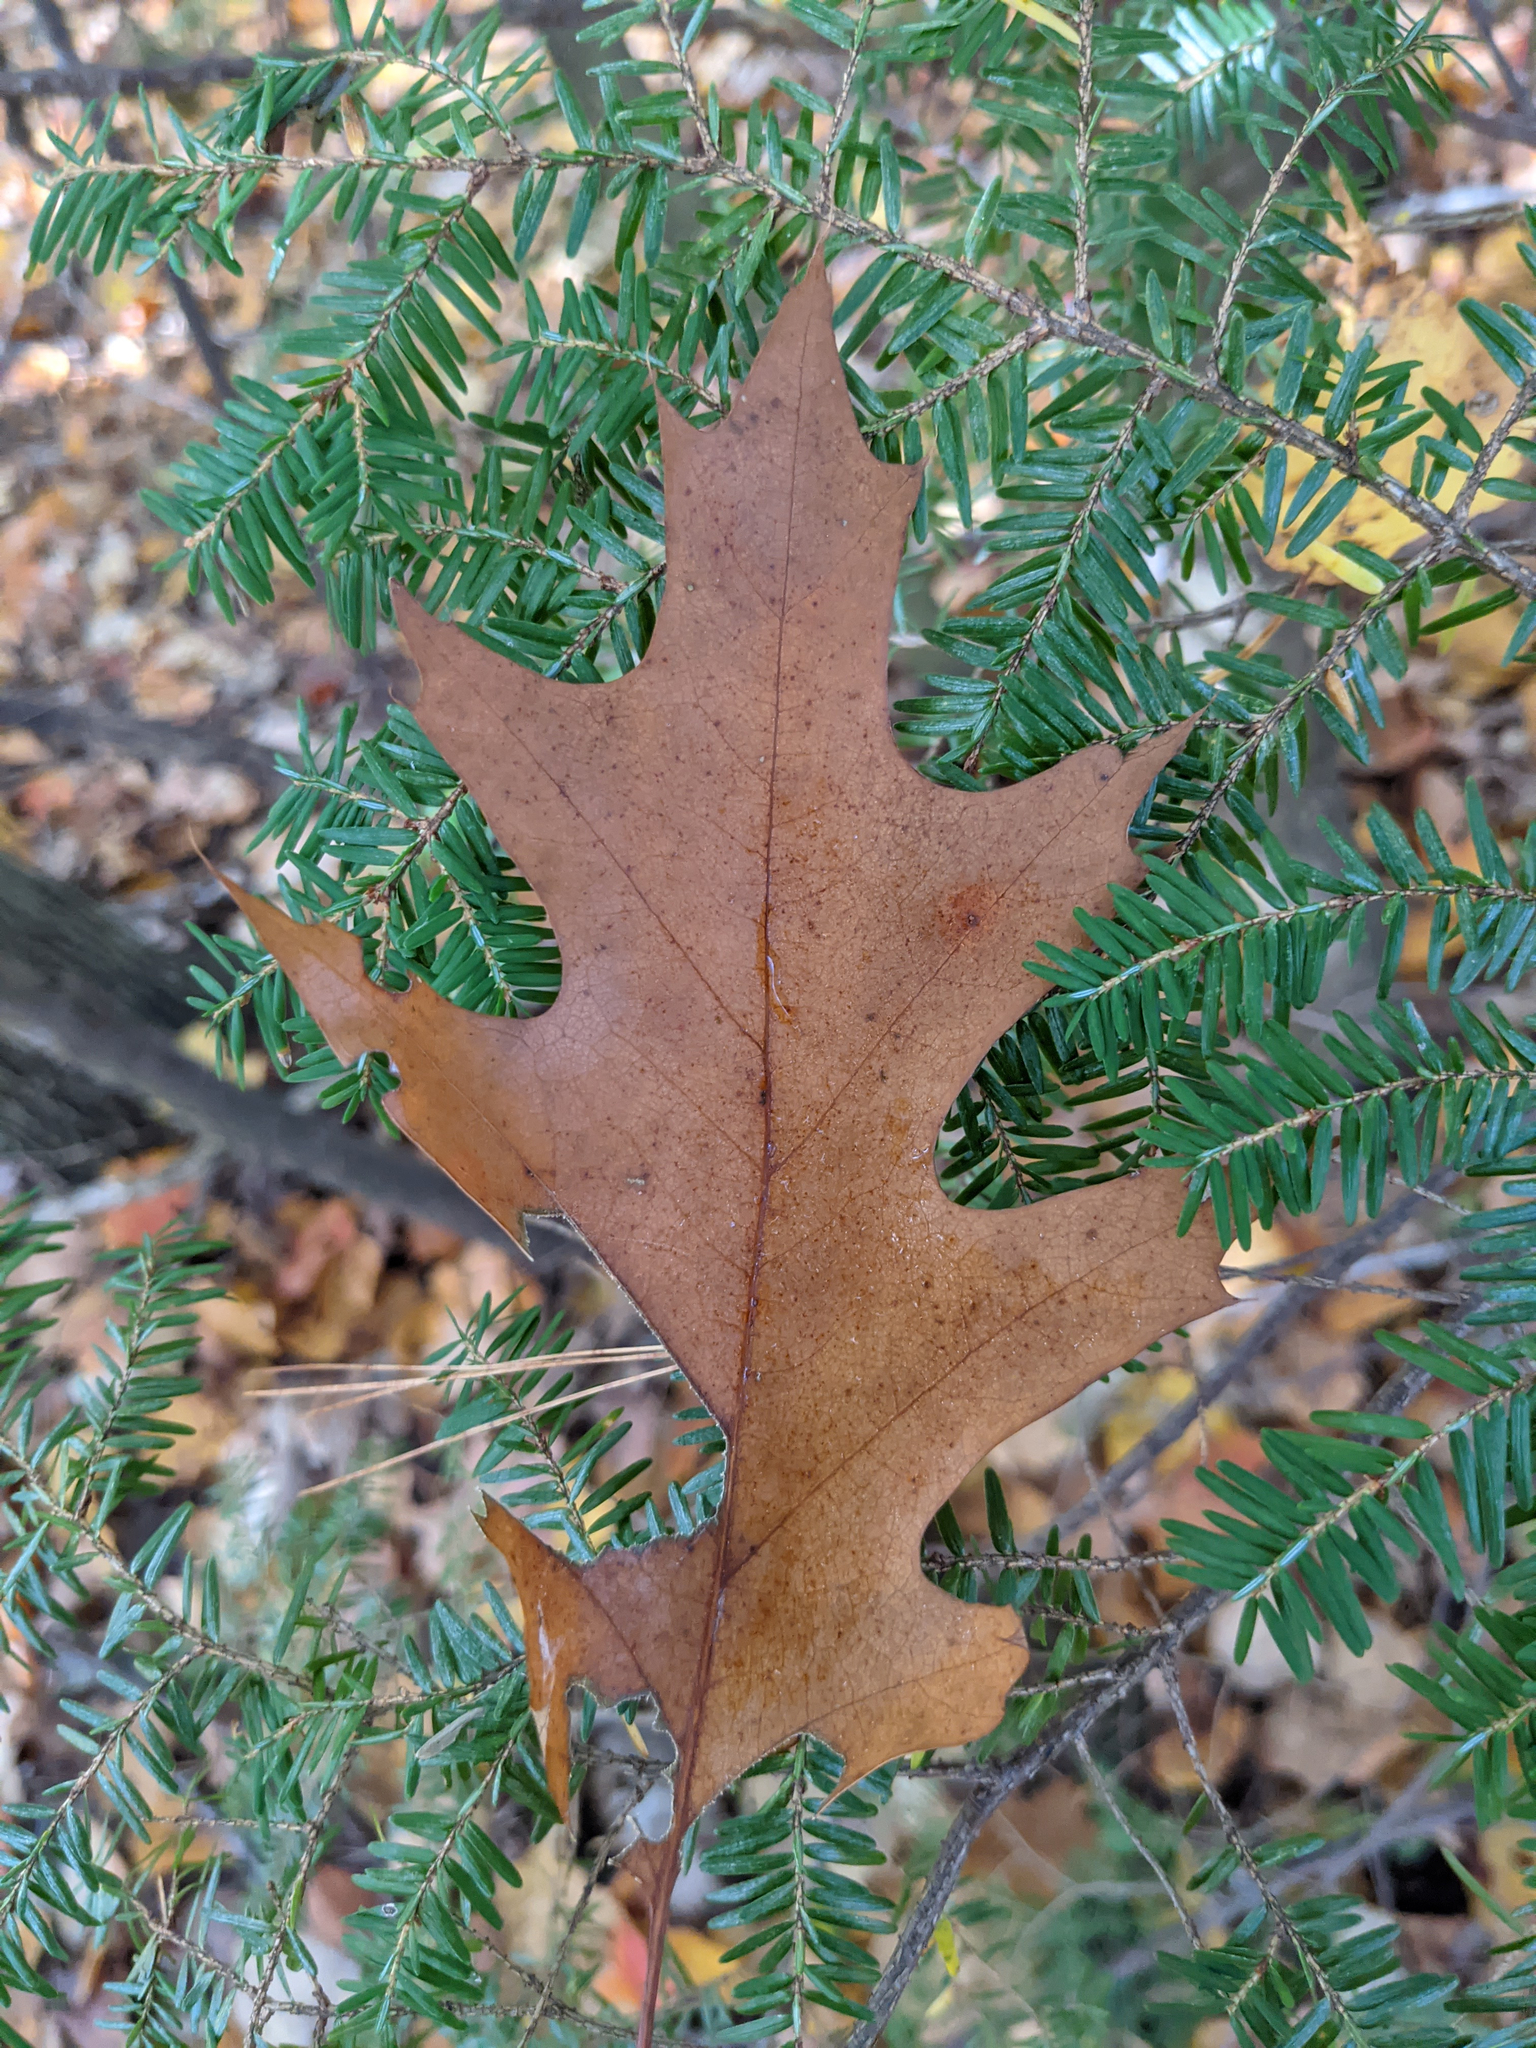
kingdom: Plantae
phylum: Tracheophyta
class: Magnoliopsida
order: Fagales
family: Fagaceae
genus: Quercus
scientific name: Quercus rubra
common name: Red oak
